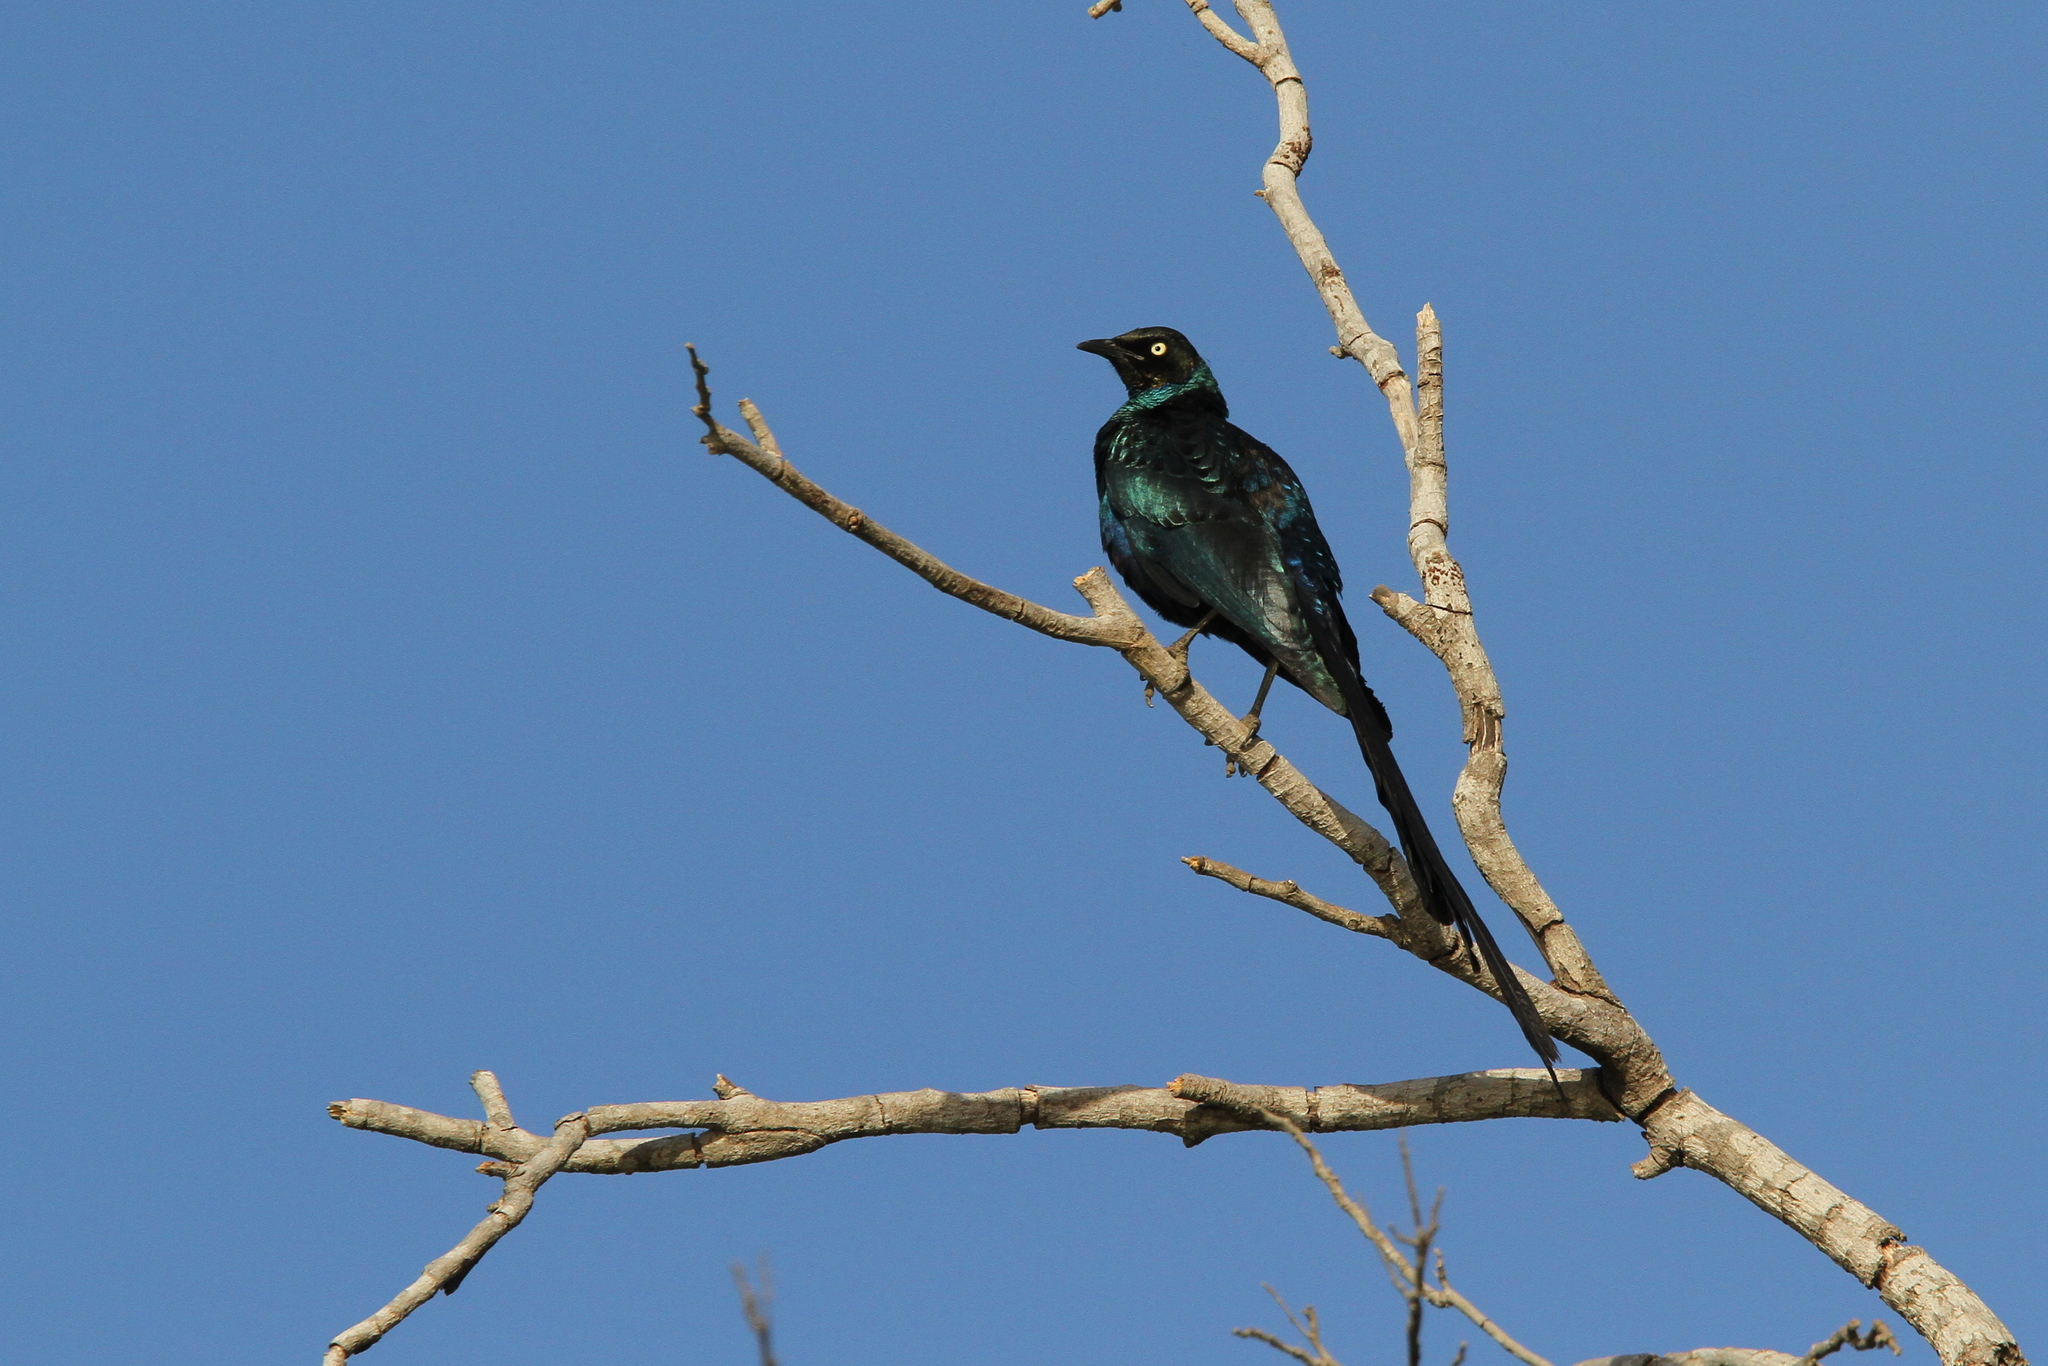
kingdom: Animalia
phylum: Chordata
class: Aves
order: Passeriformes
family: Sturnidae
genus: Lamprotornis
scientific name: Lamprotornis caudatus
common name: Long-tailed glossy starling
